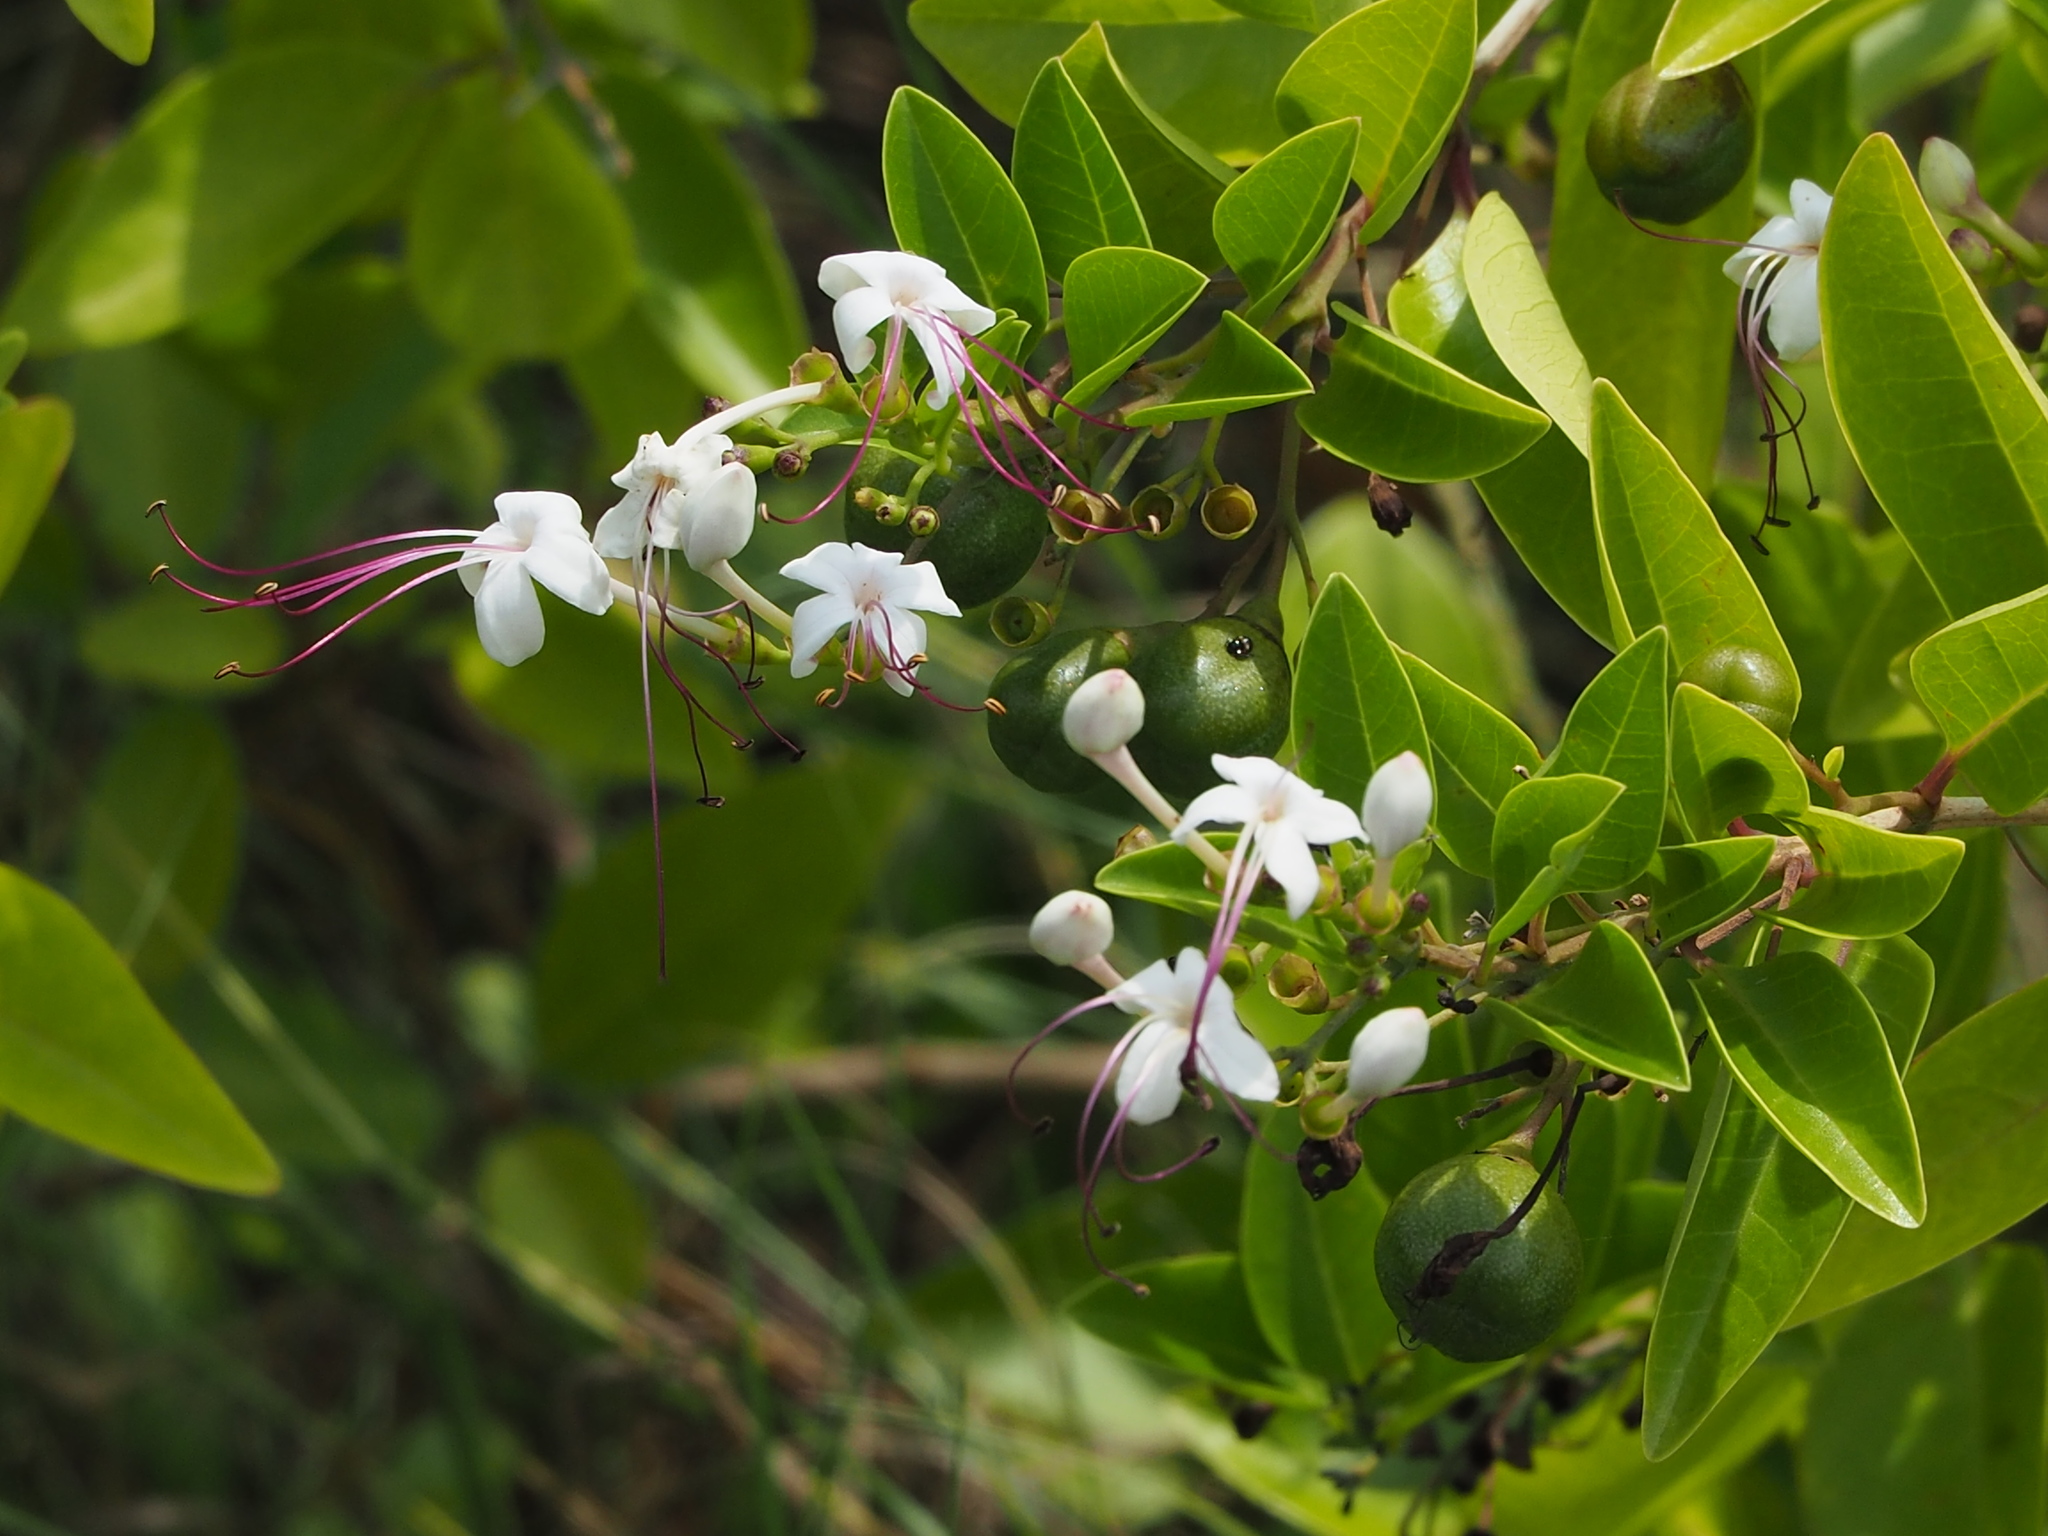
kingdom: Plantae
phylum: Tracheophyta
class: Magnoliopsida
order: Lamiales
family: Lamiaceae
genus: Volkameria
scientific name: Volkameria inermis
